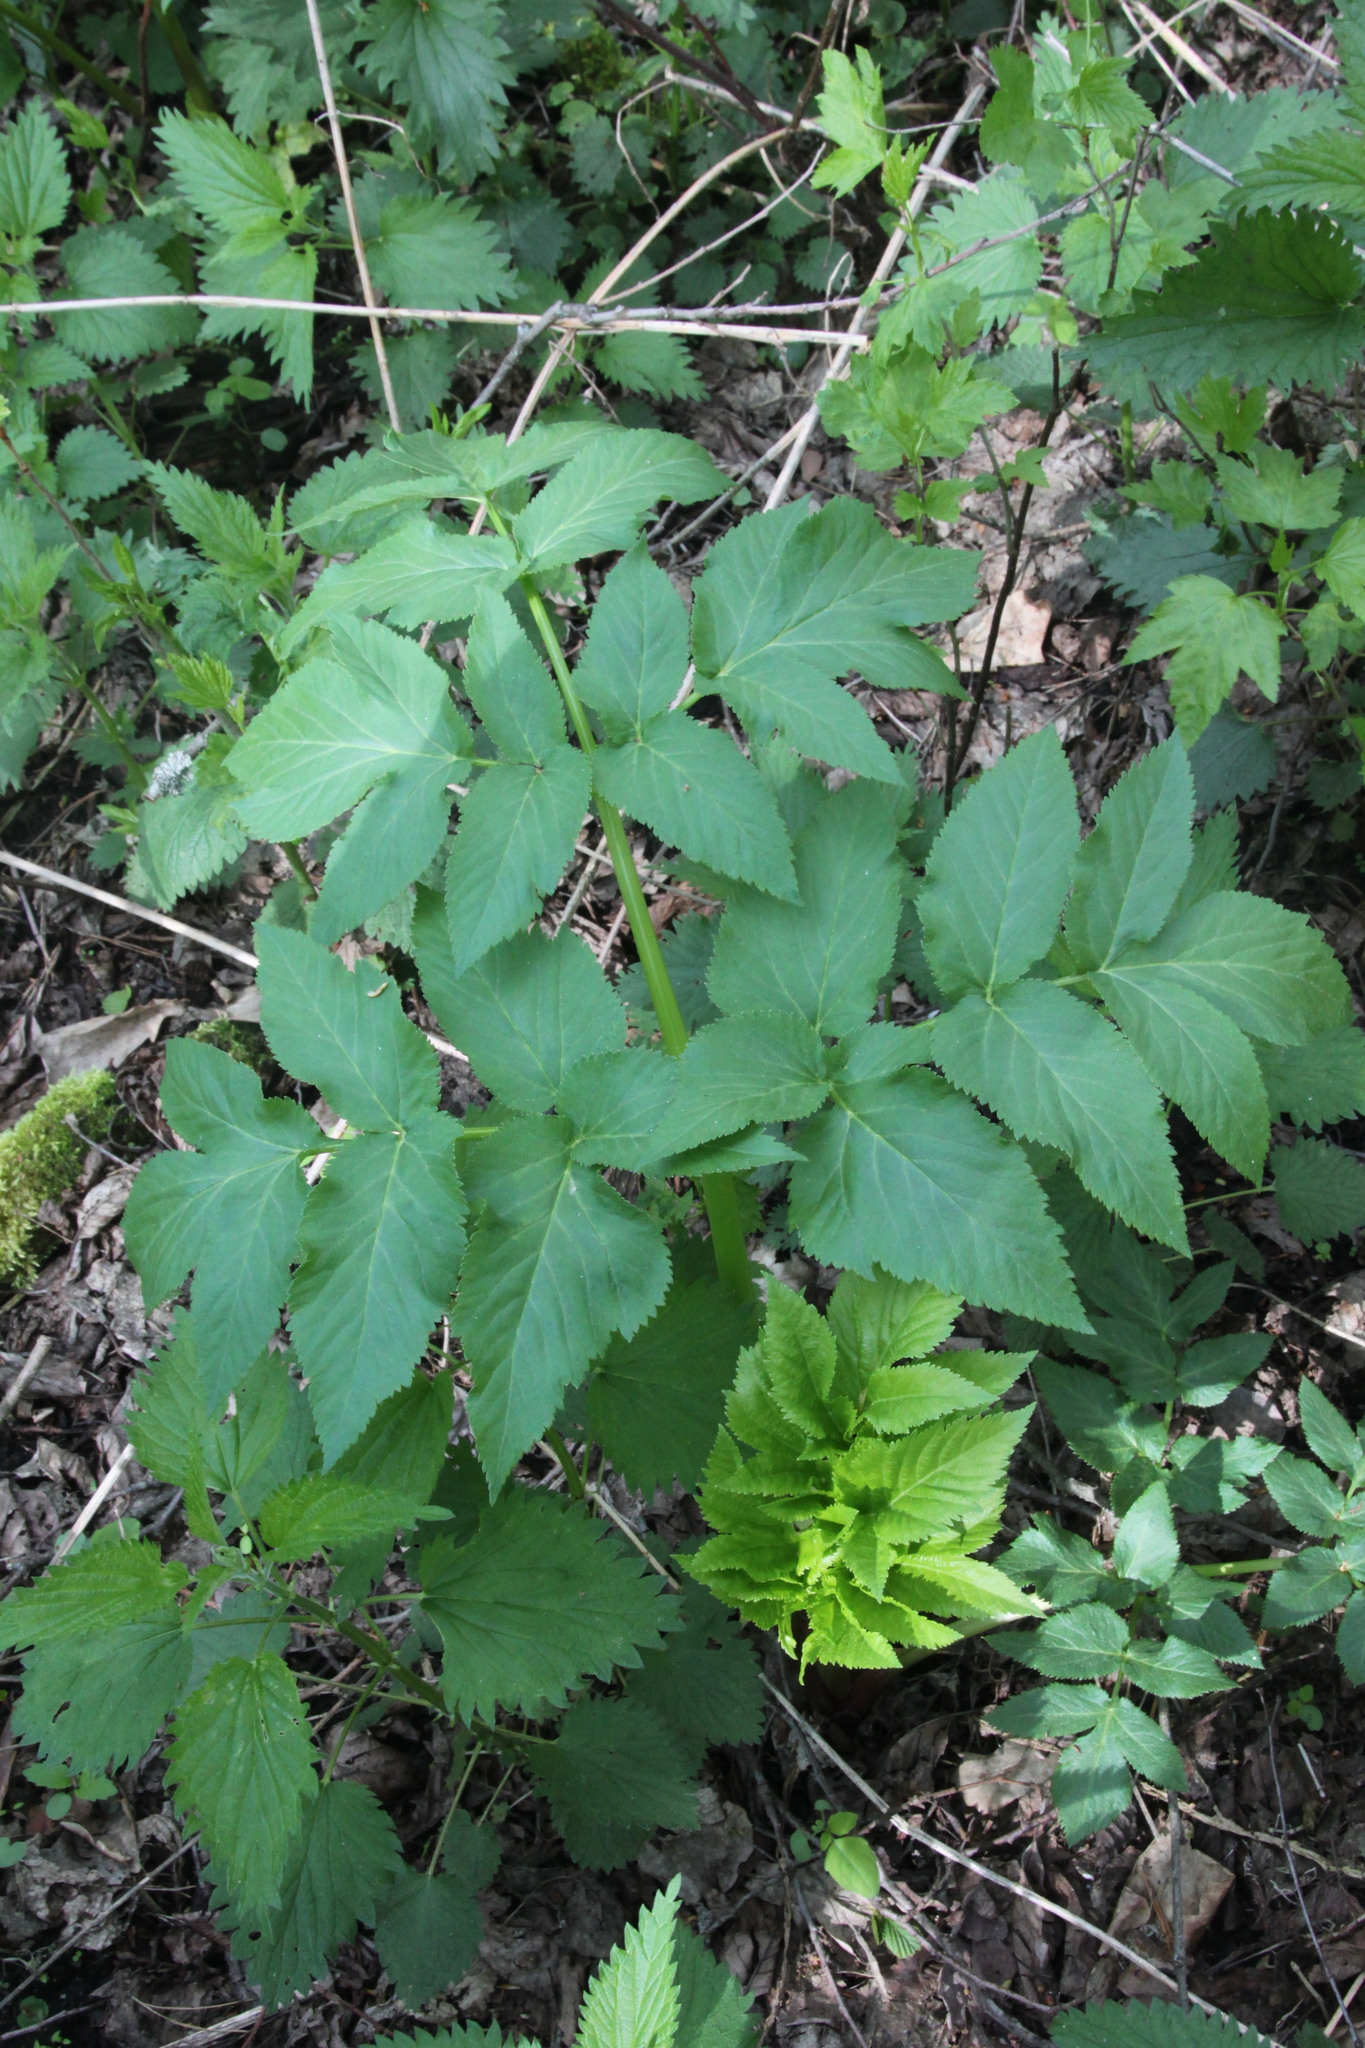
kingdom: Plantae
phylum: Tracheophyta
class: Magnoliopsida
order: Apiales
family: Apiaceae
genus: Angelica
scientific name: Angelica archangelica
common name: Garden angelica
